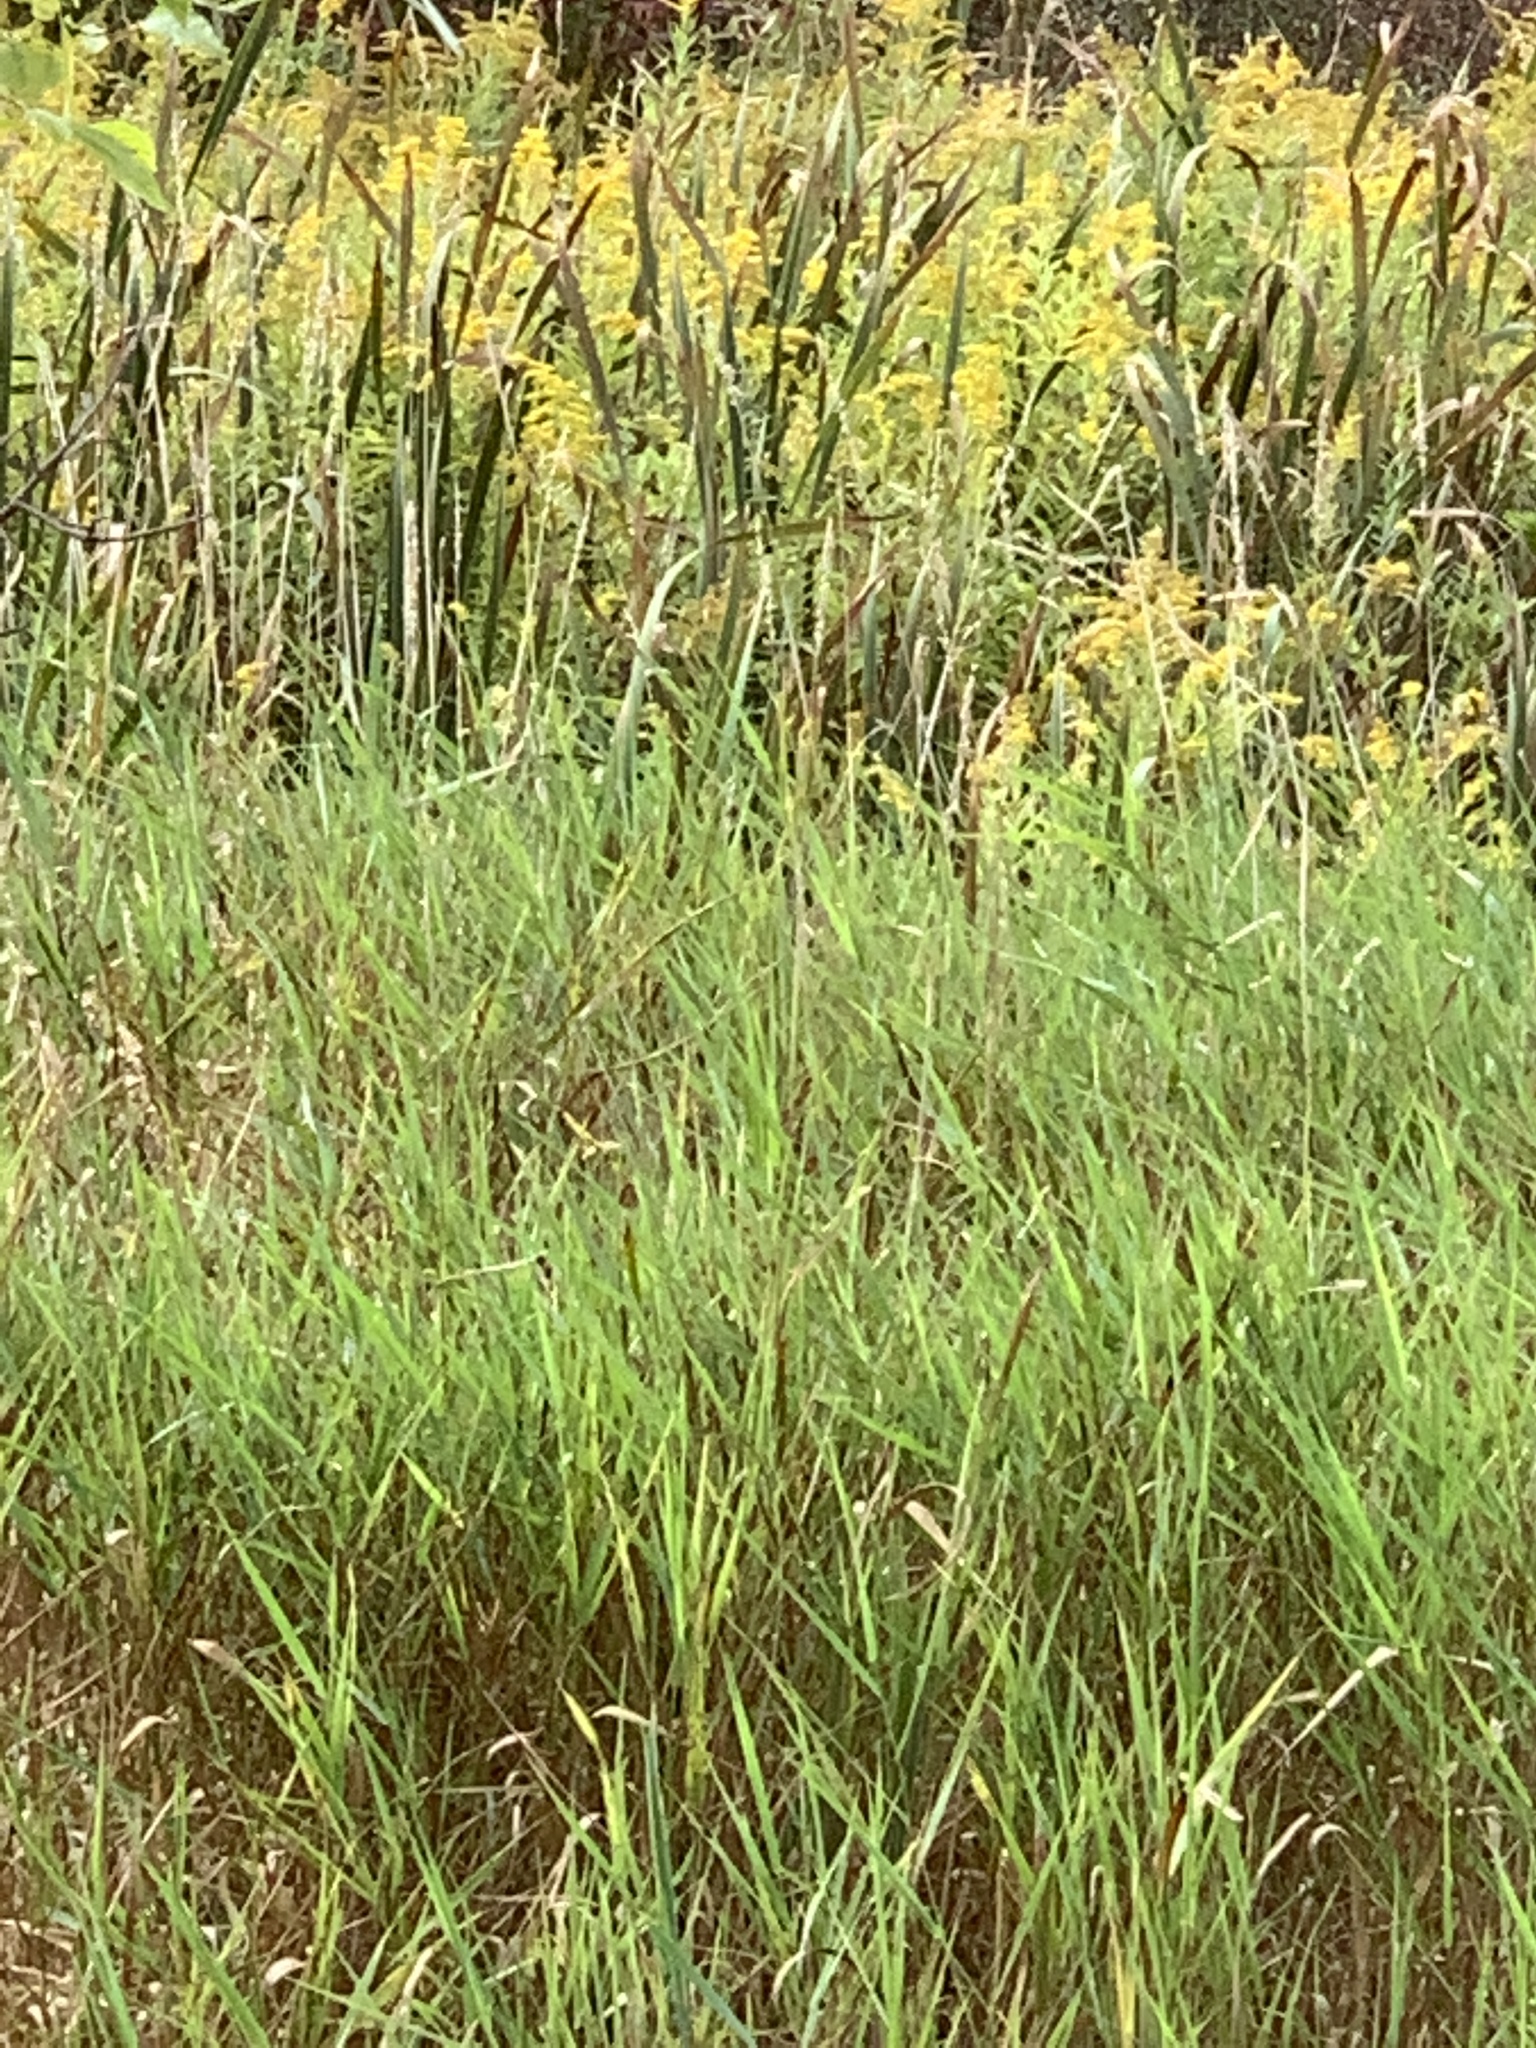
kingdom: Plantae
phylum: Tracheophyta
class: Liliopsida
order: Poales
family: Poaceae
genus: Phalaris
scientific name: Phalaris arundinacea
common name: Reed canary-grass
